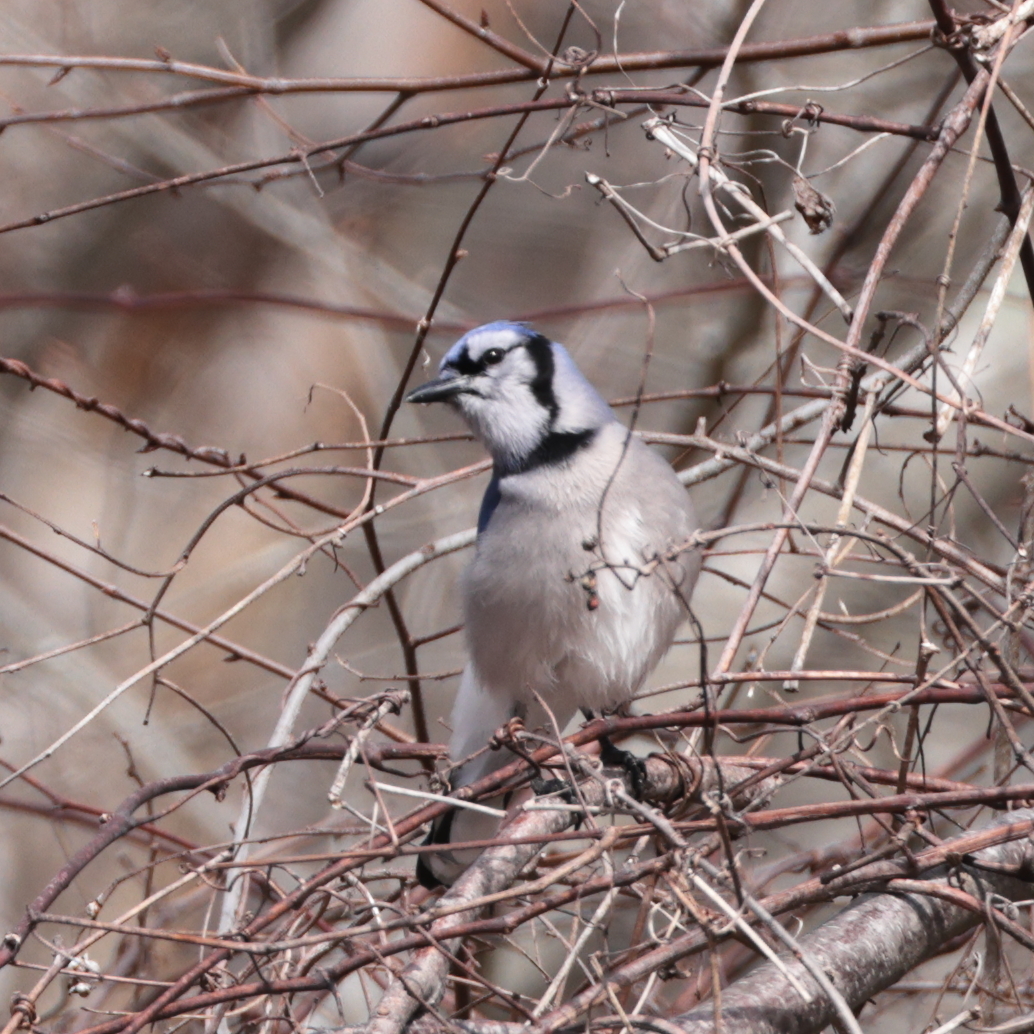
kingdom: Animalia
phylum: Chordata
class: Aves
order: Passeriformes
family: Corvidae
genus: Cyanocitta
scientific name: Cyanocitta cristata
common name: Blue jay
